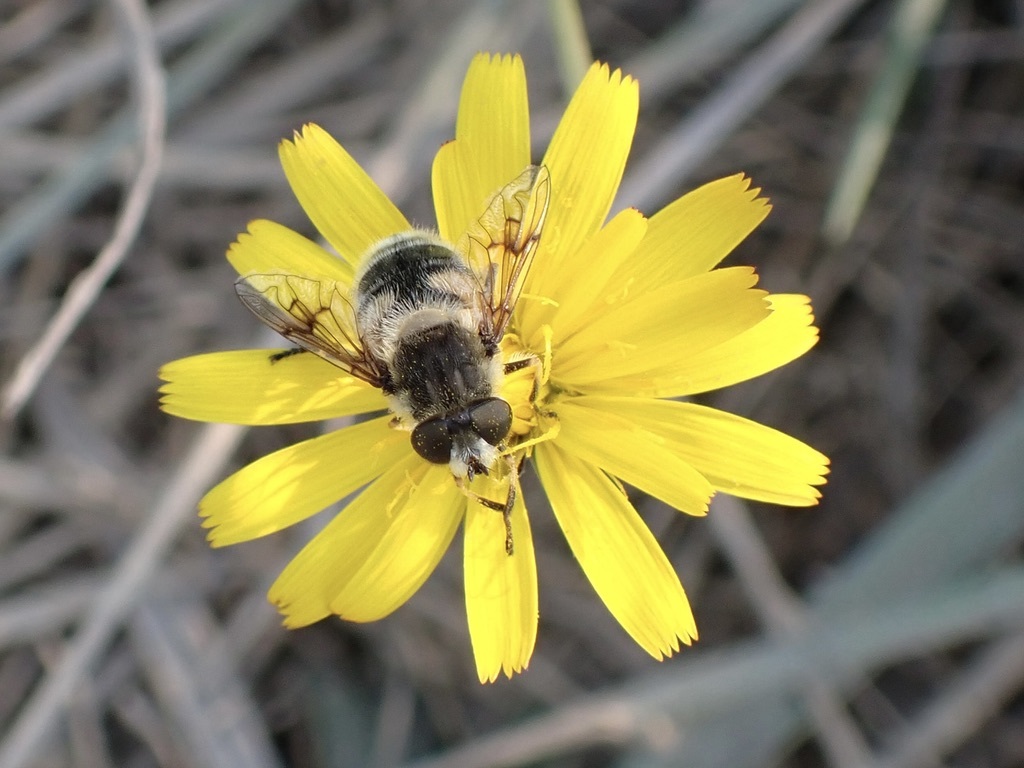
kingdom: Animalia
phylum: Arthropoda
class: Insecta
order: Diptera
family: Syrphidae
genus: Eristalis
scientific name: Eristalis anthophorina
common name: Orange-spotted drone fly
